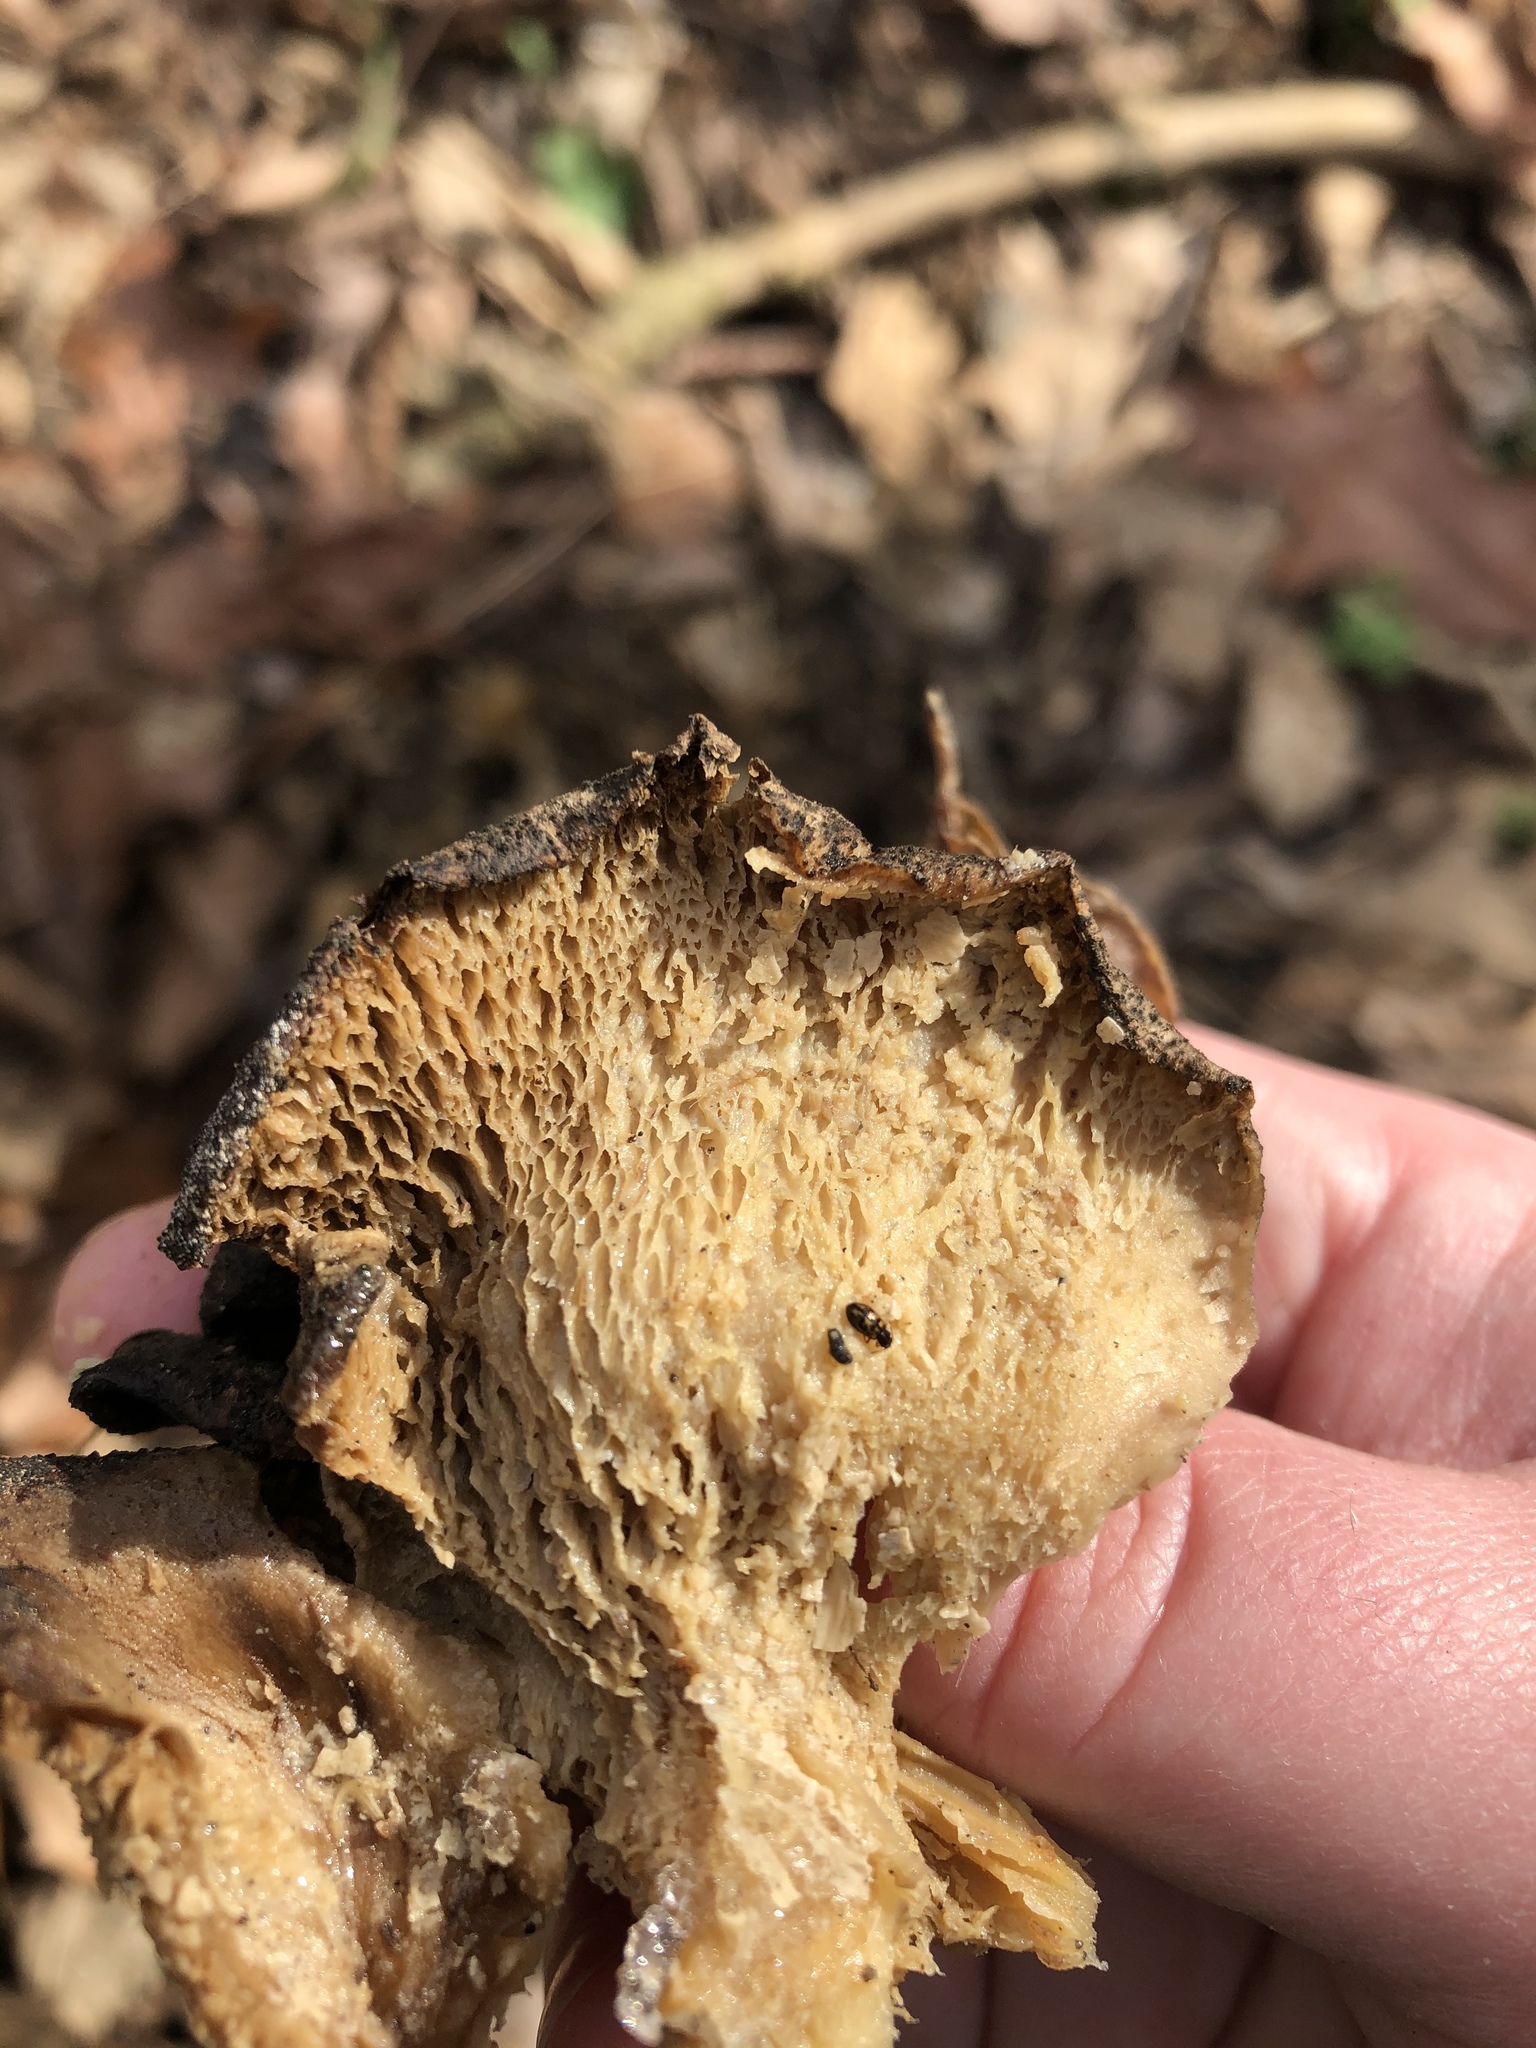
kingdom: Fungi
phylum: Basidiomycota
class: Agaricomycetes
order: Polyporales
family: Grifolaceae
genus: Grifola
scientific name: Grifola frondosa
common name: Hen of the woods
